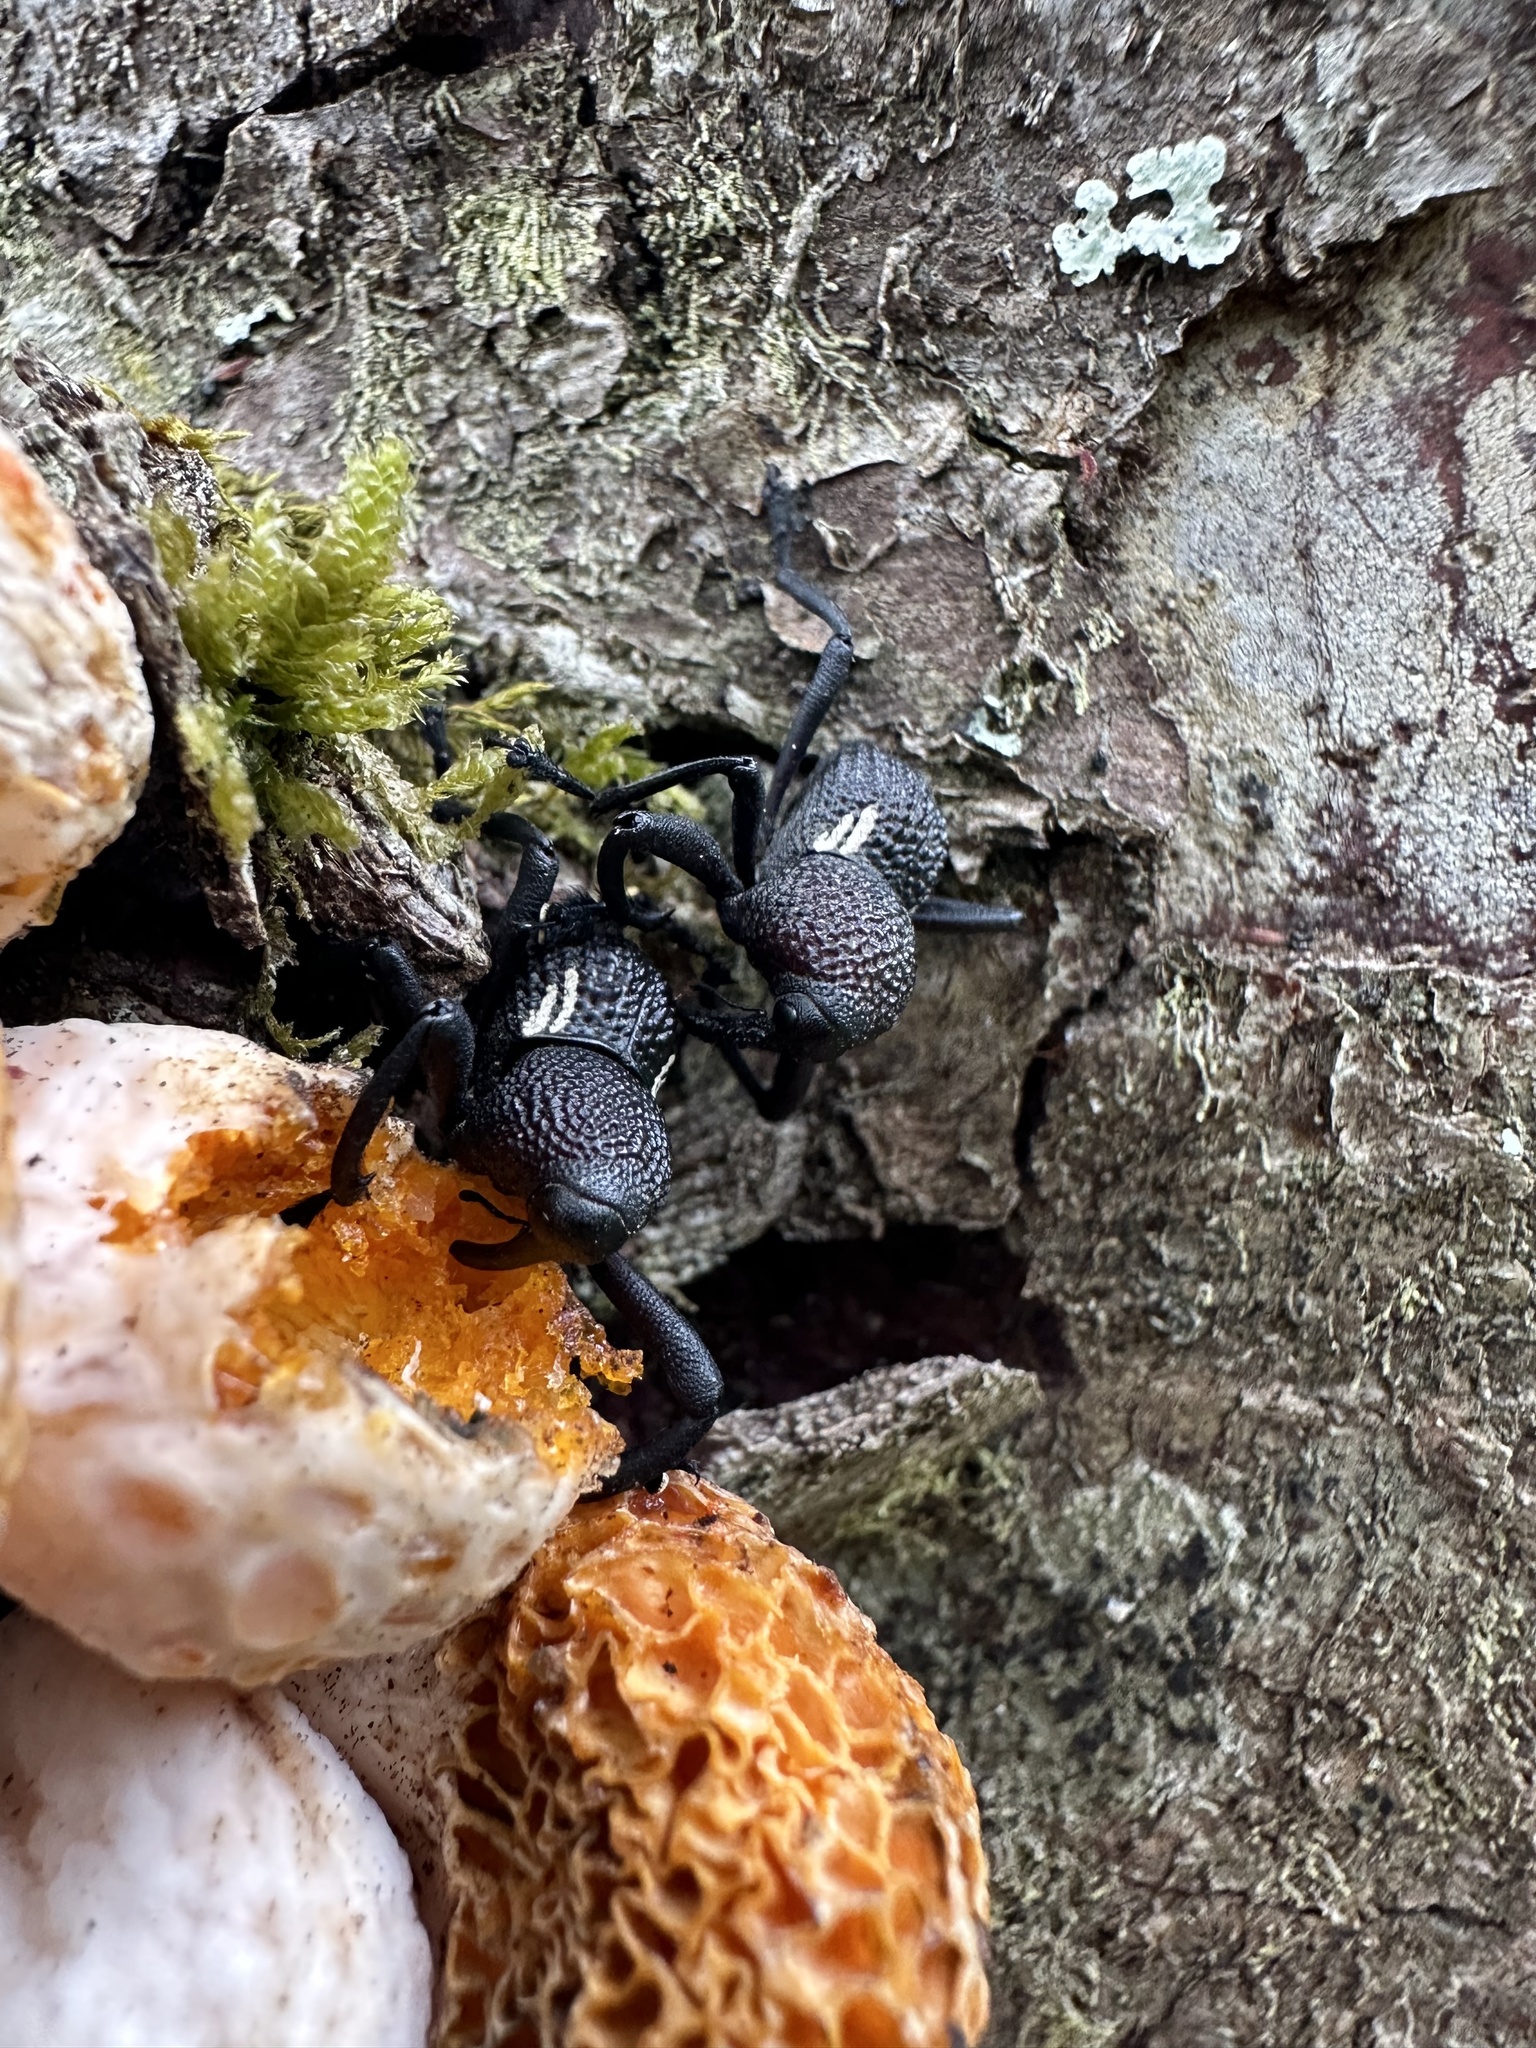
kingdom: Animalia
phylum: Arthropoda
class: Insecta
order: Coleoptera
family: Curculionidae
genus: Rhyephenes
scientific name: Rhyephenes humeralis
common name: Araè±ita chilena del pino
